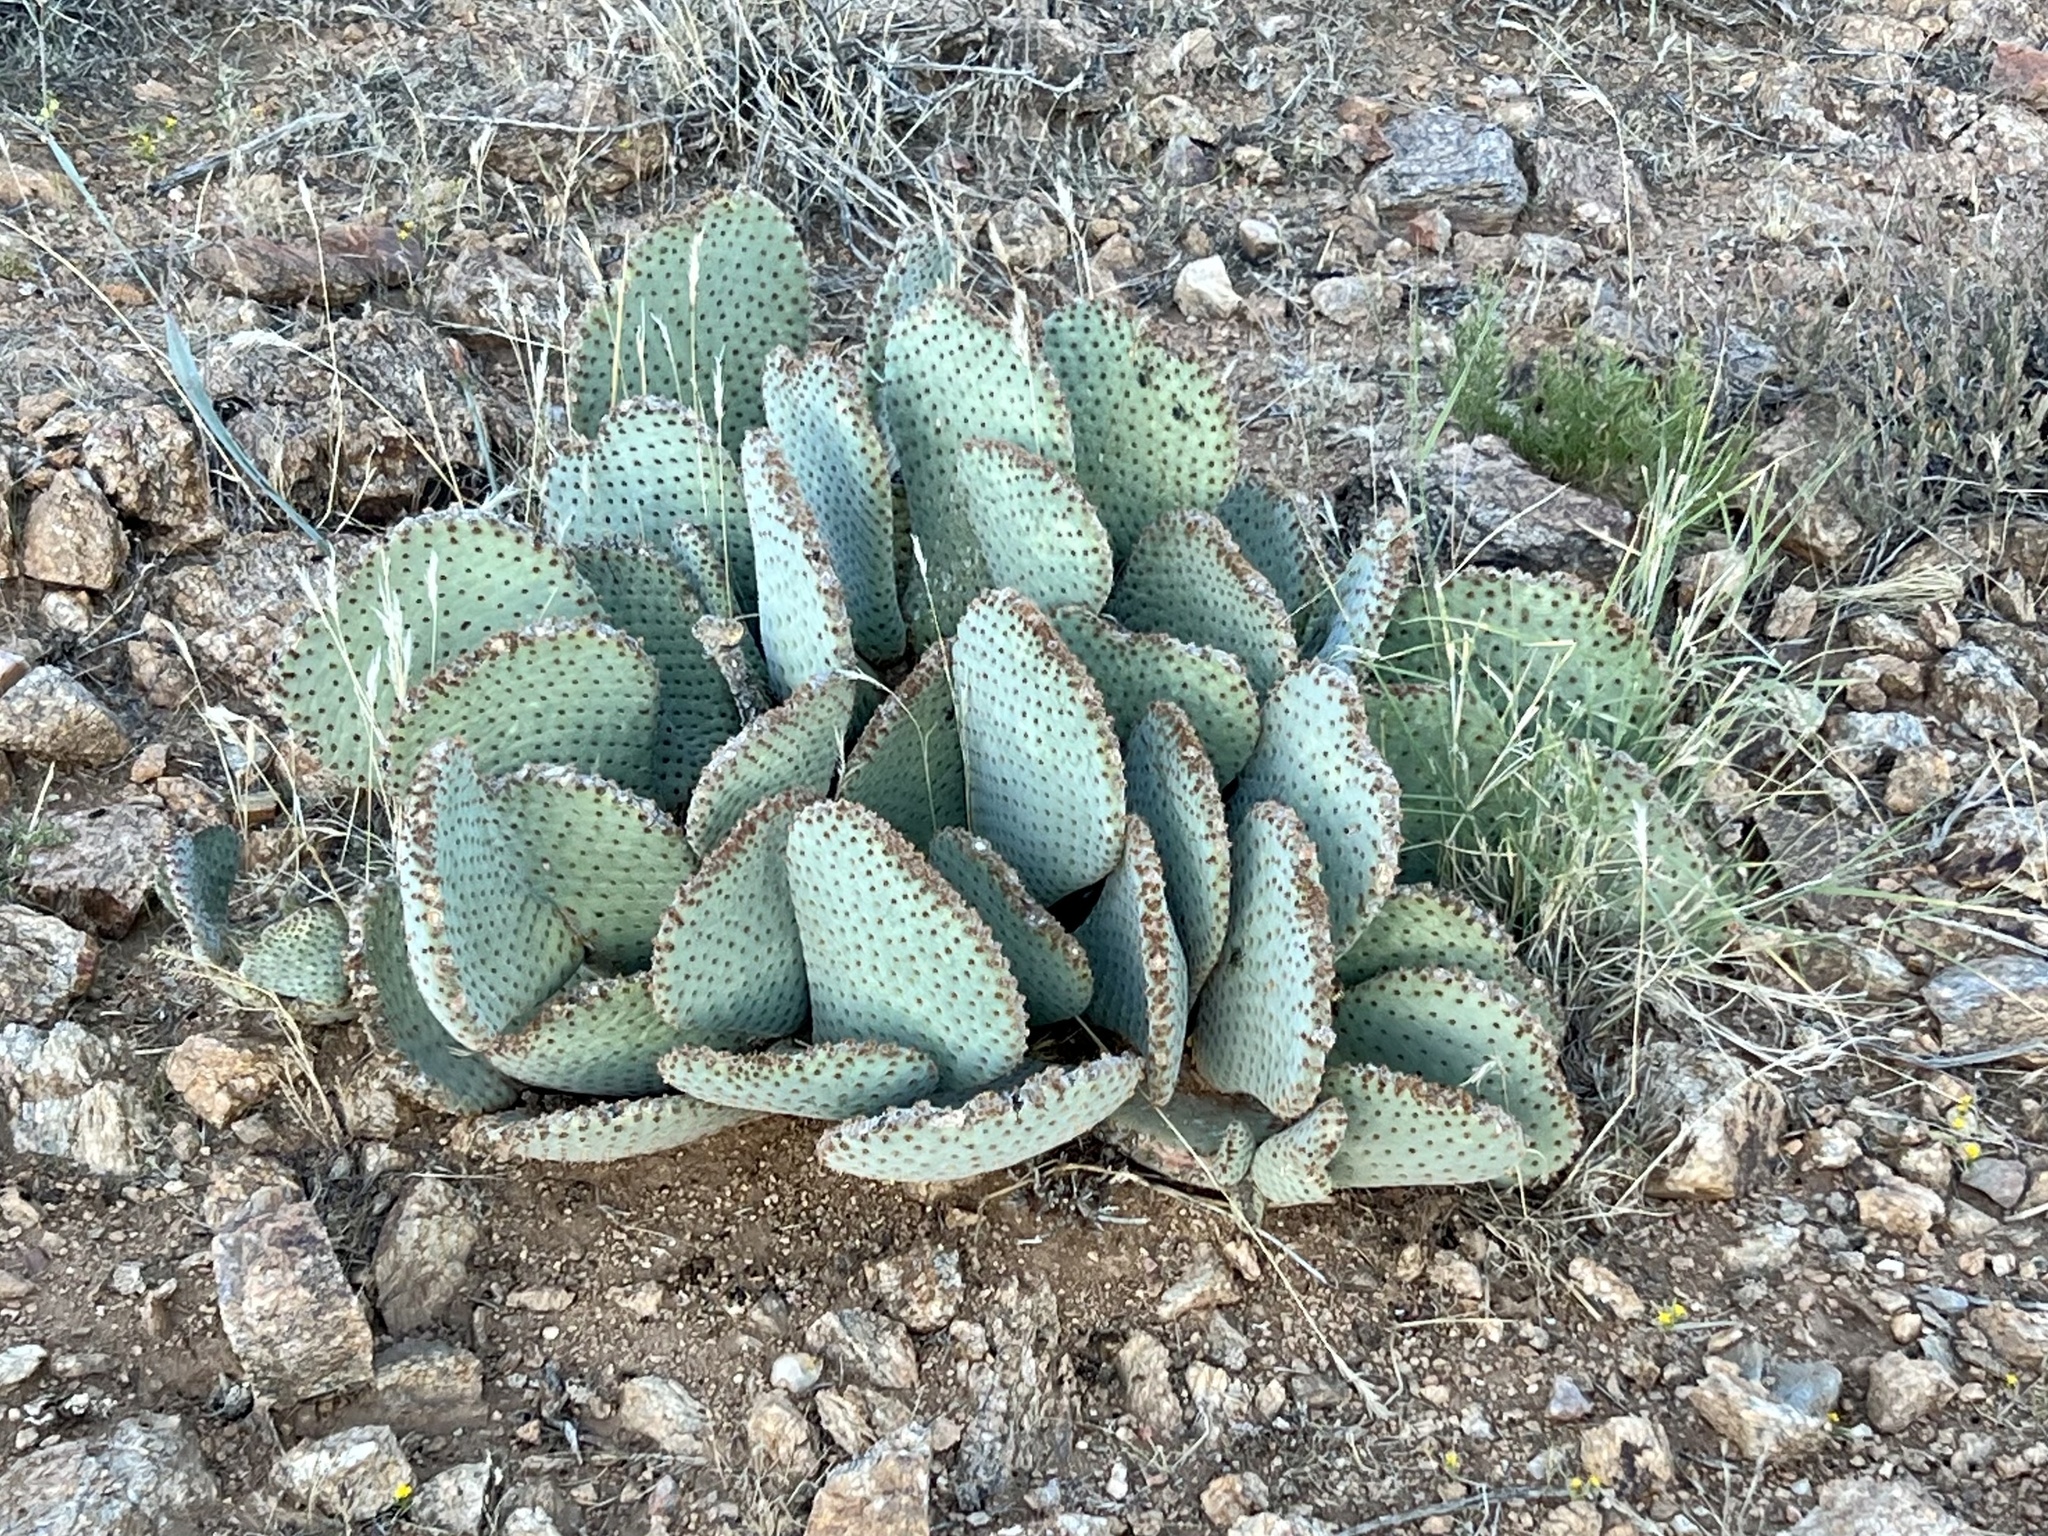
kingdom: Plantae
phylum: Tracheophyta
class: Magnoliopsida
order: Caryophyllales
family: Cactaceae
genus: Opuntia
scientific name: Opuntia basilaris
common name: Beavertail prickly-pear
